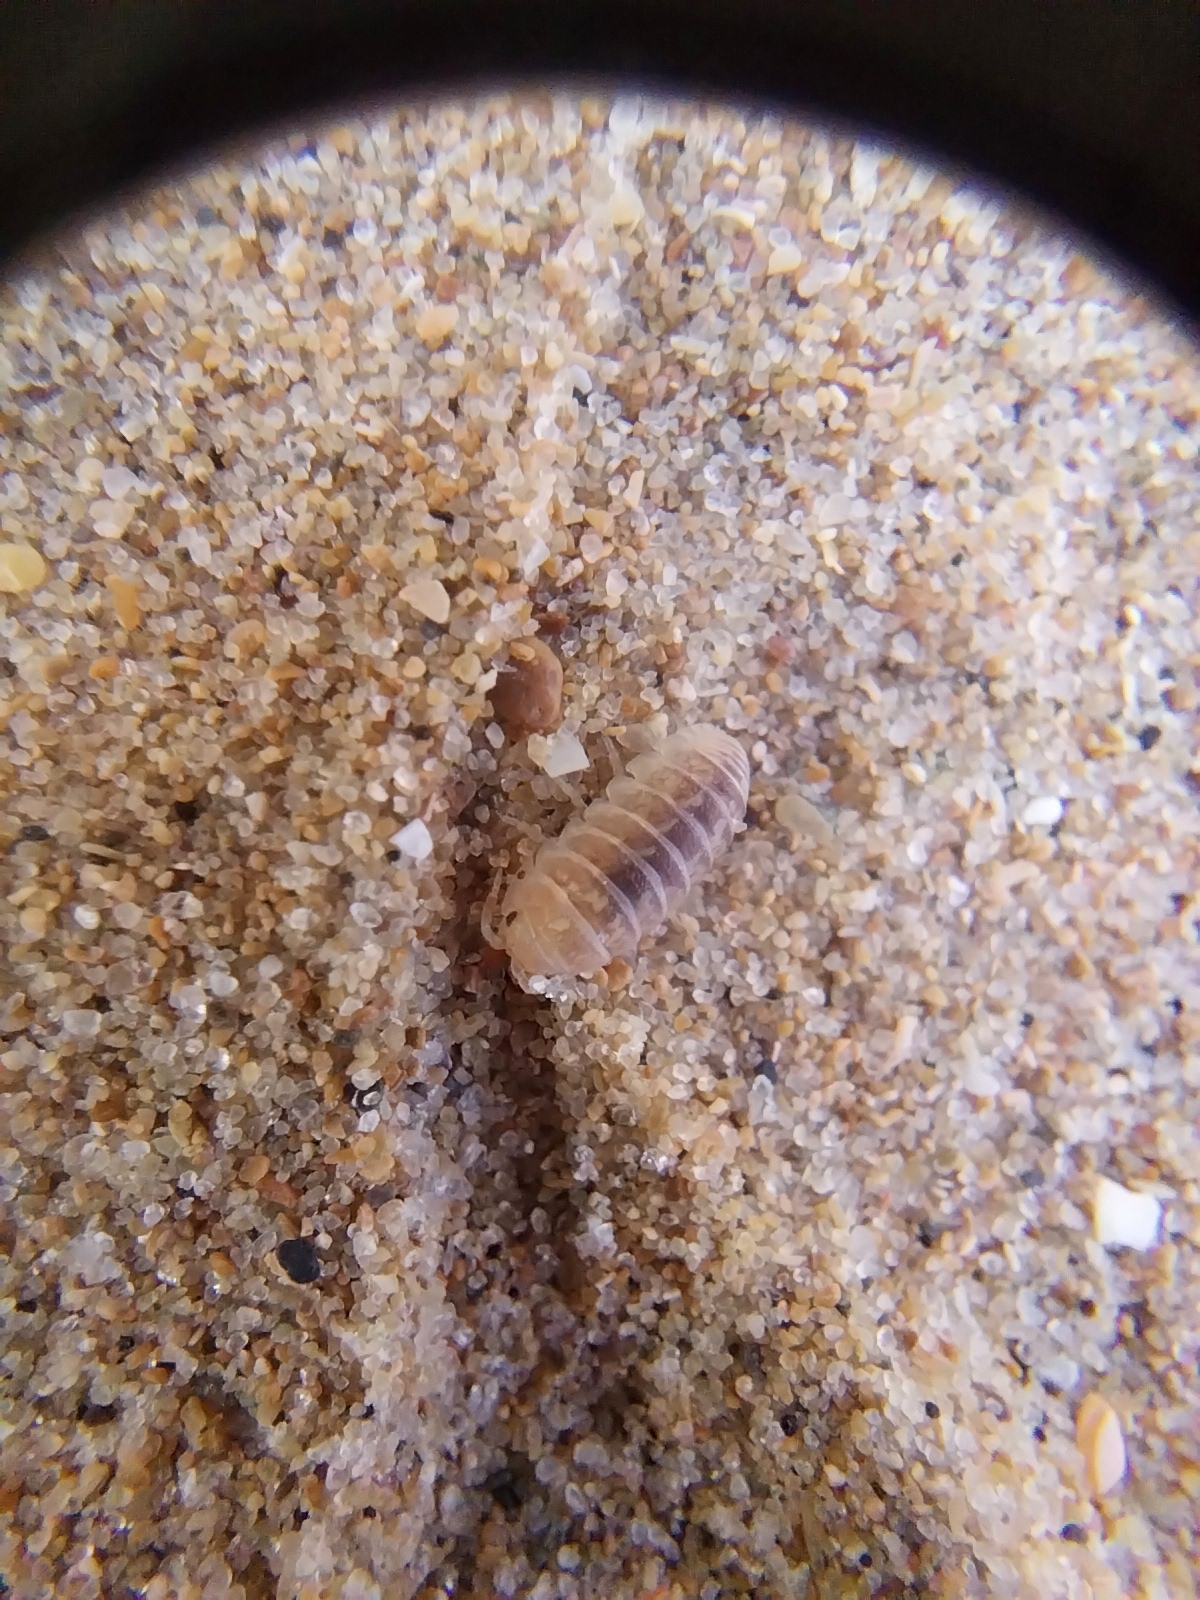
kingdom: Animalia
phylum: Arthropoda
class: Malacostraca
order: Isopoda
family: Armadillidiidae
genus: Armadillidium
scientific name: Armadillidium album
